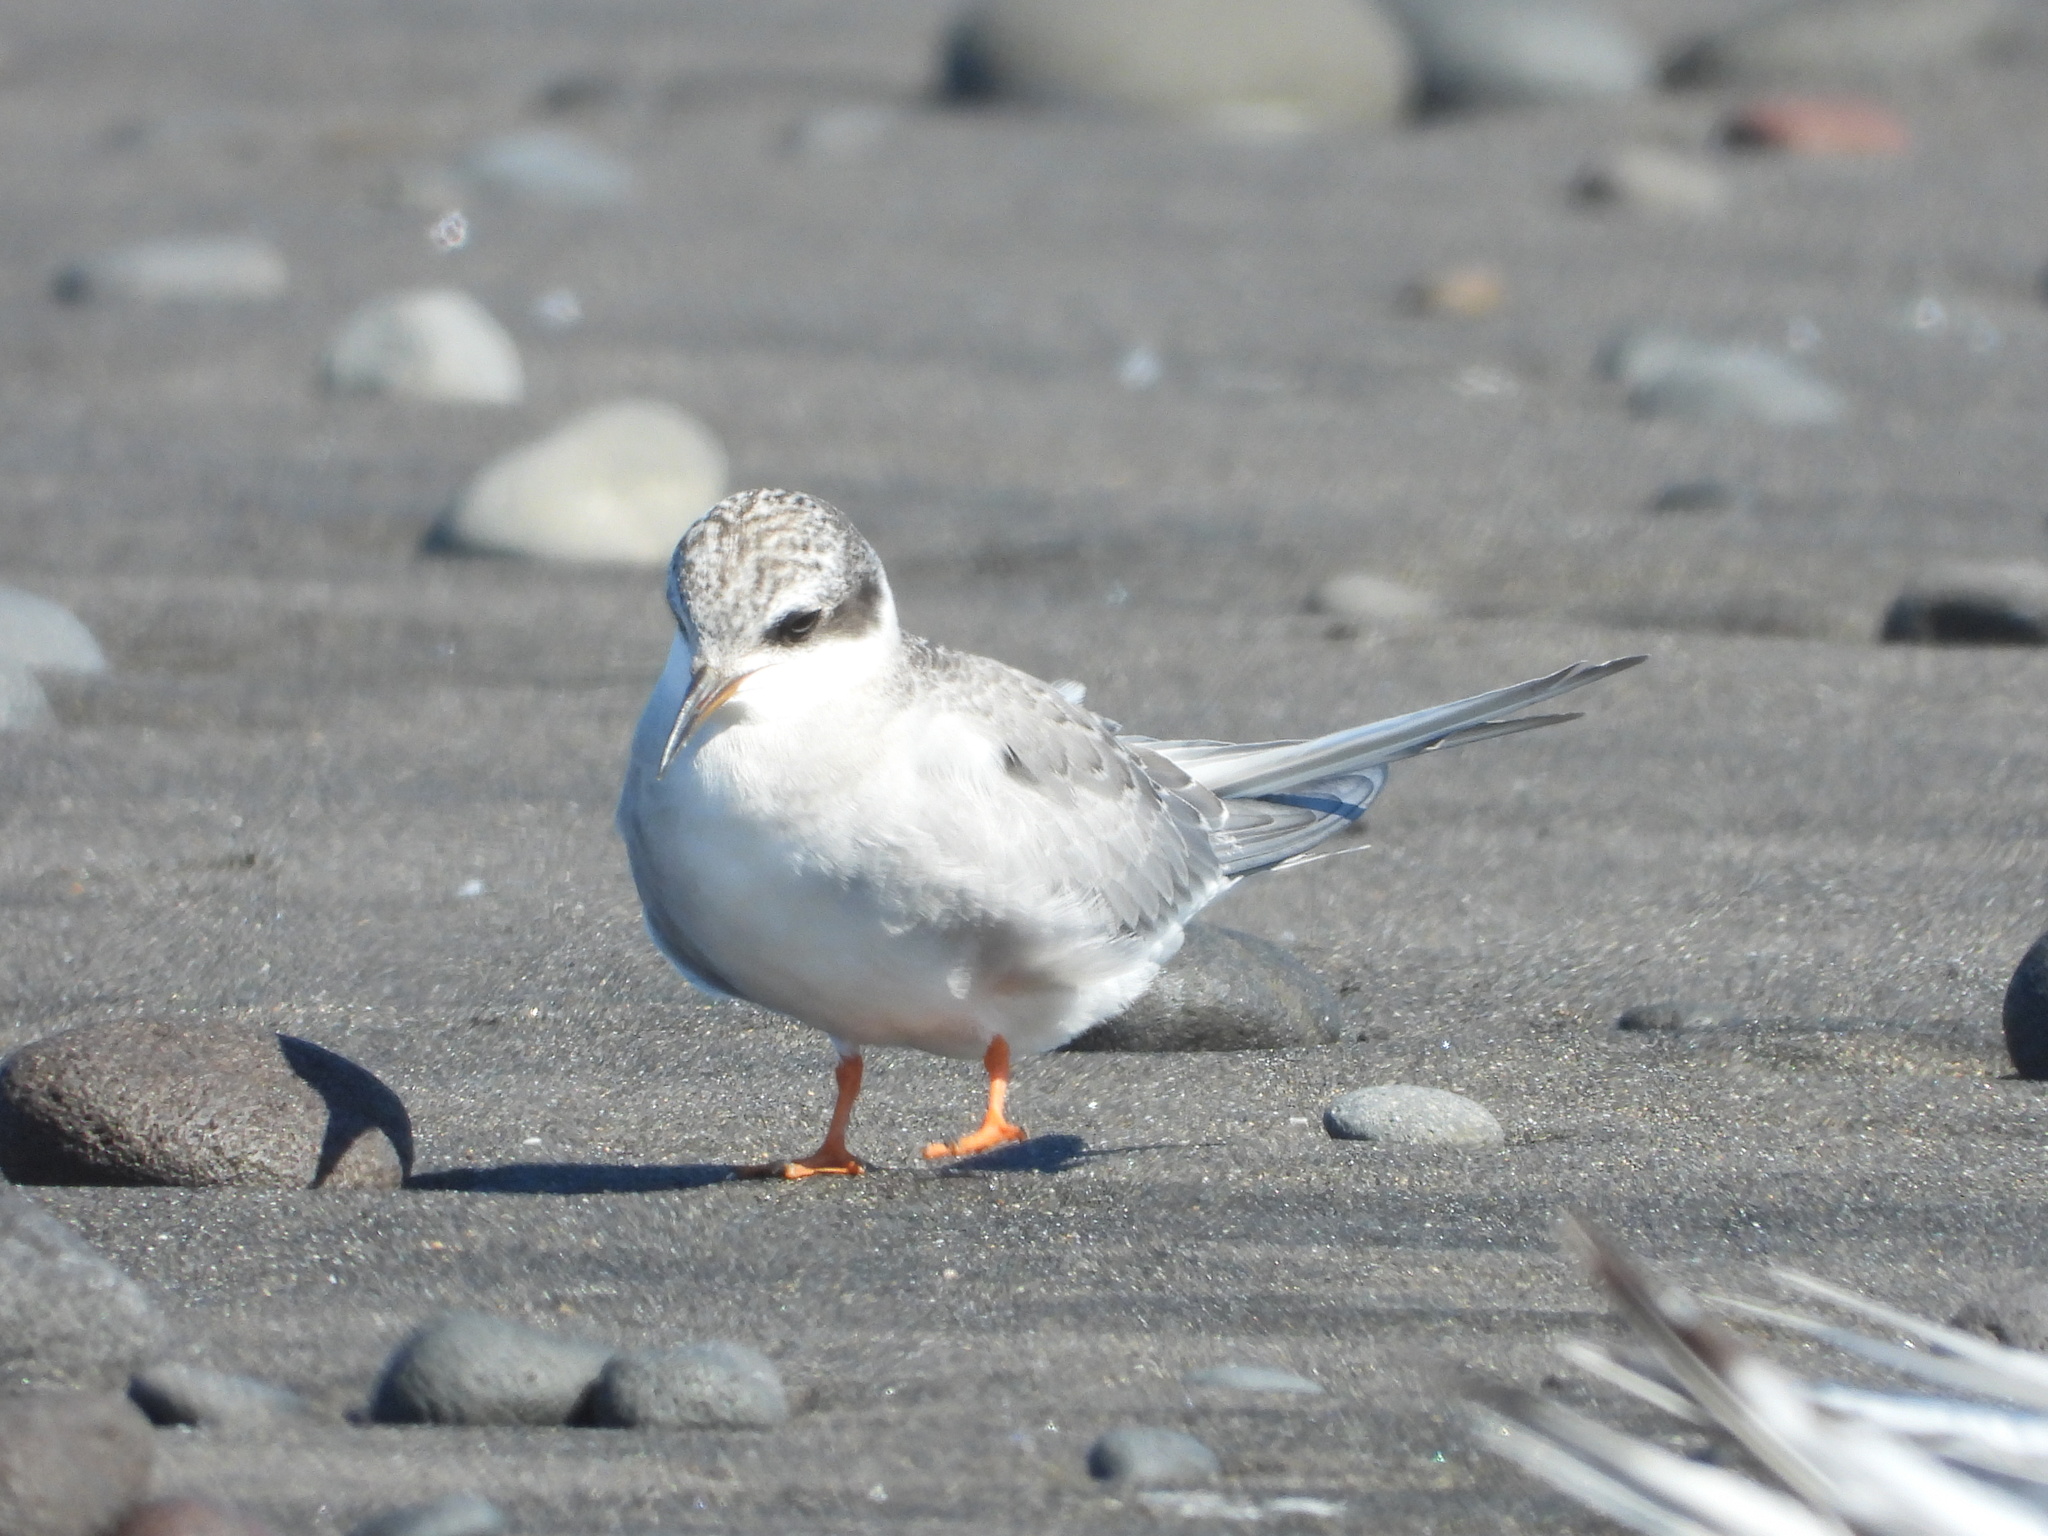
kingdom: Animalia
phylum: Chordata
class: Aves
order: Charadriiformes
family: Laridae
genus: Chlidonias
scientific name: Chlidonias albostriatus
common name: Black-fronted tern
